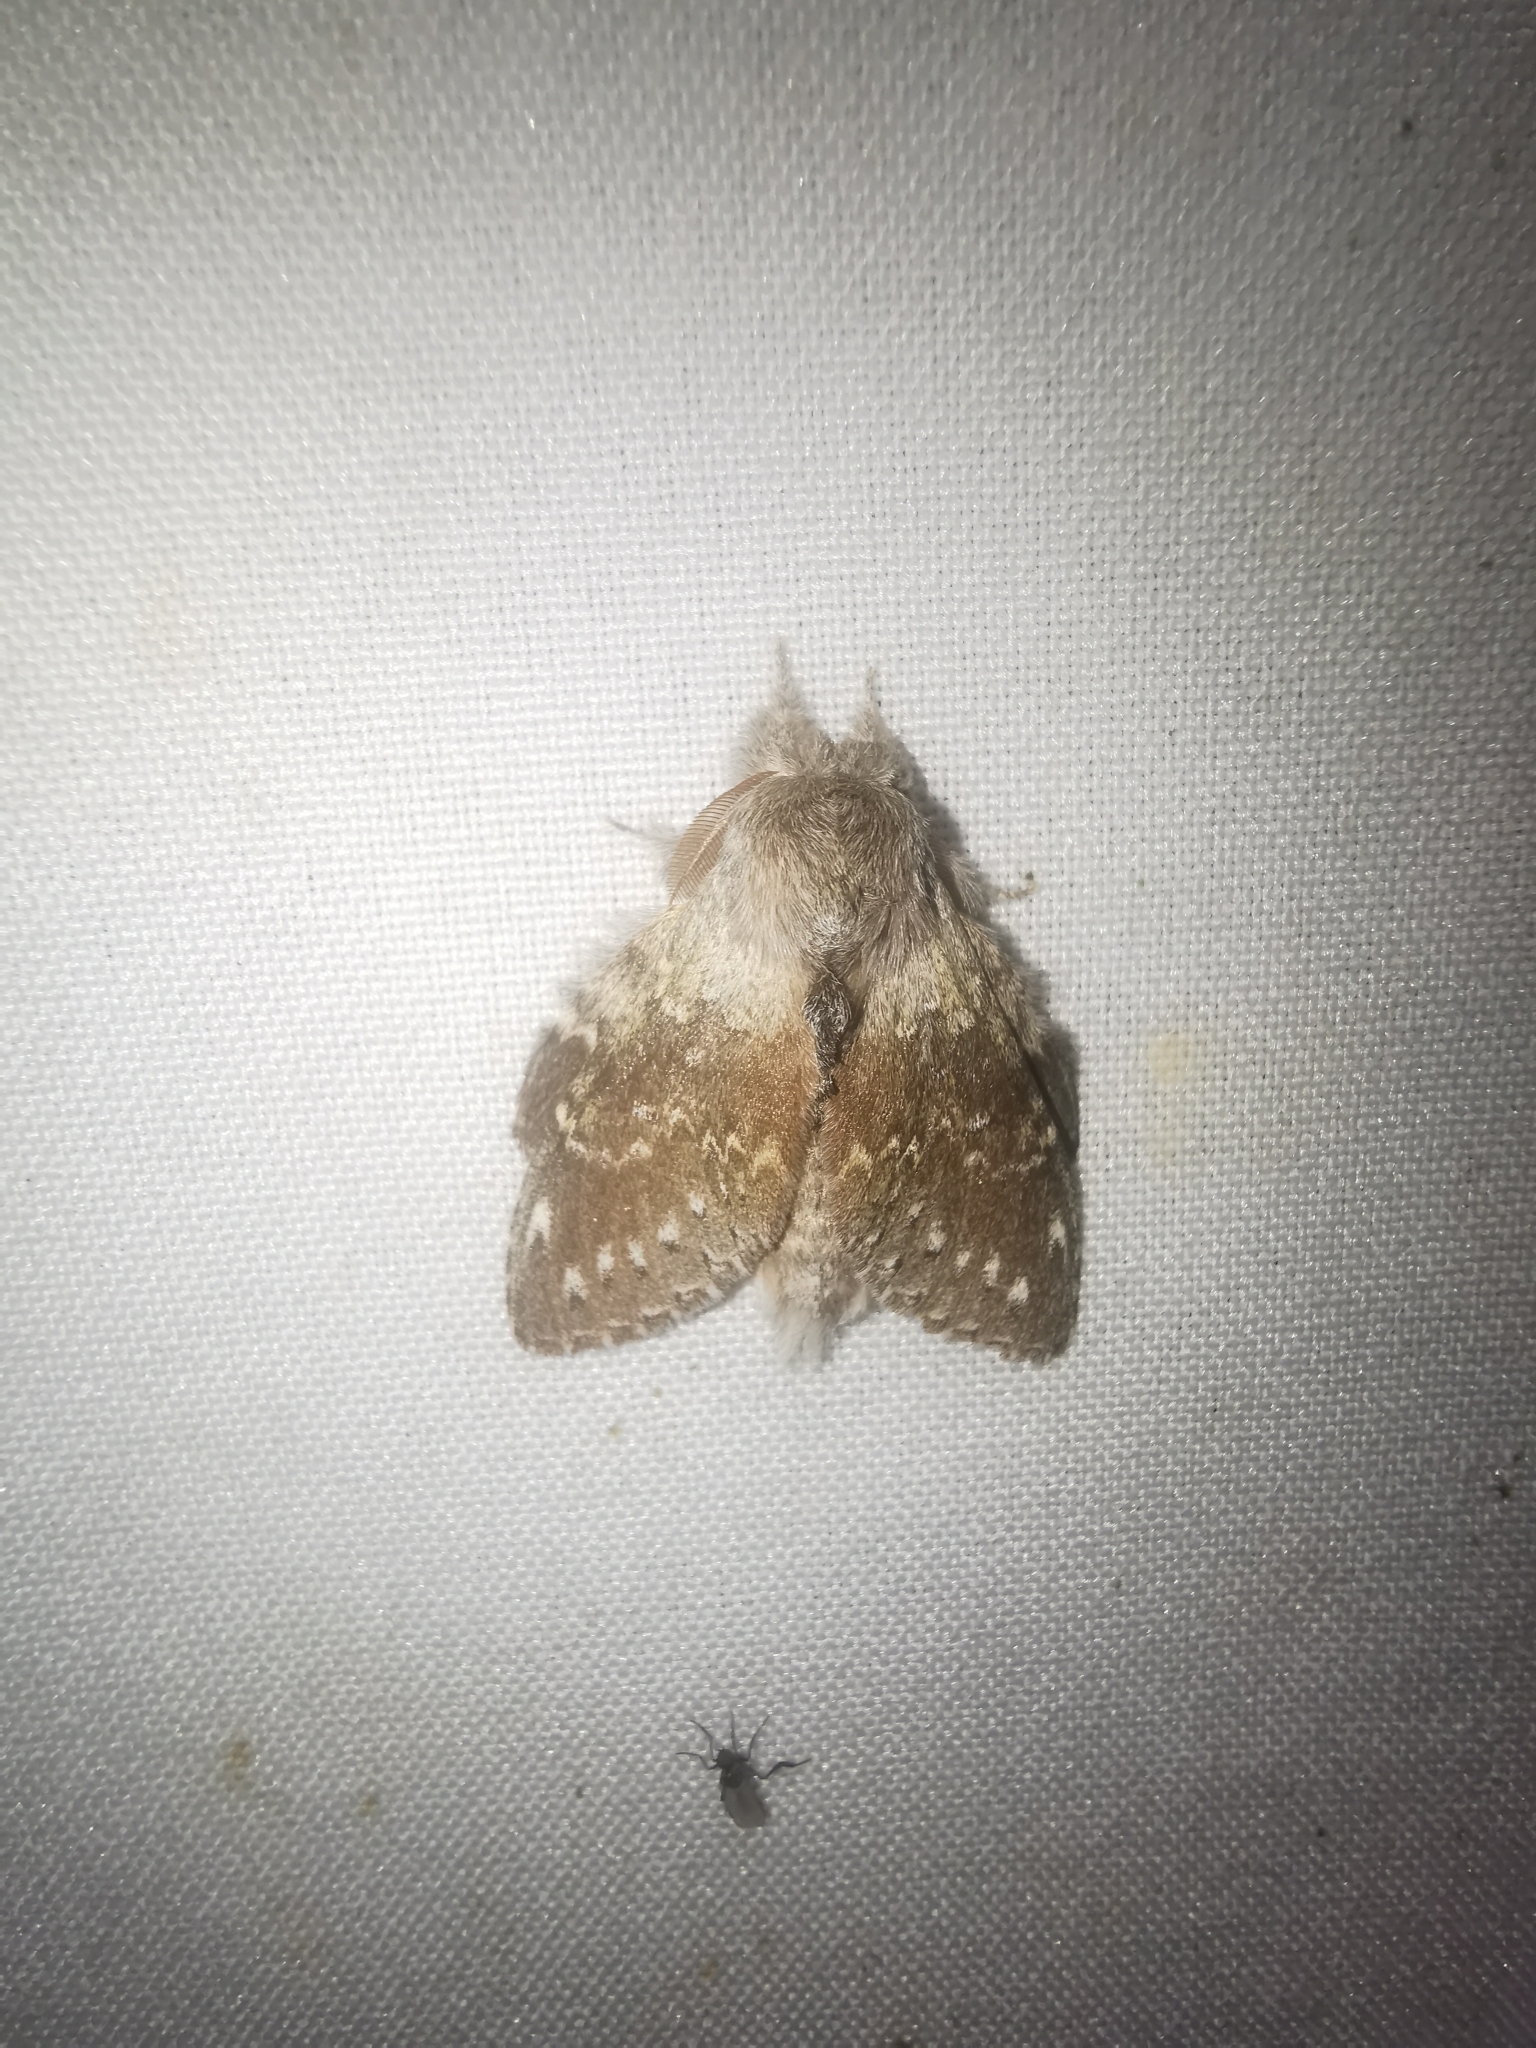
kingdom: Animalia
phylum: Arthropoda
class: Insecta
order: Lepidoptera
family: Notodontidae
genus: Stauropus
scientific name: Stauropus fagi
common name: Lobster moth
